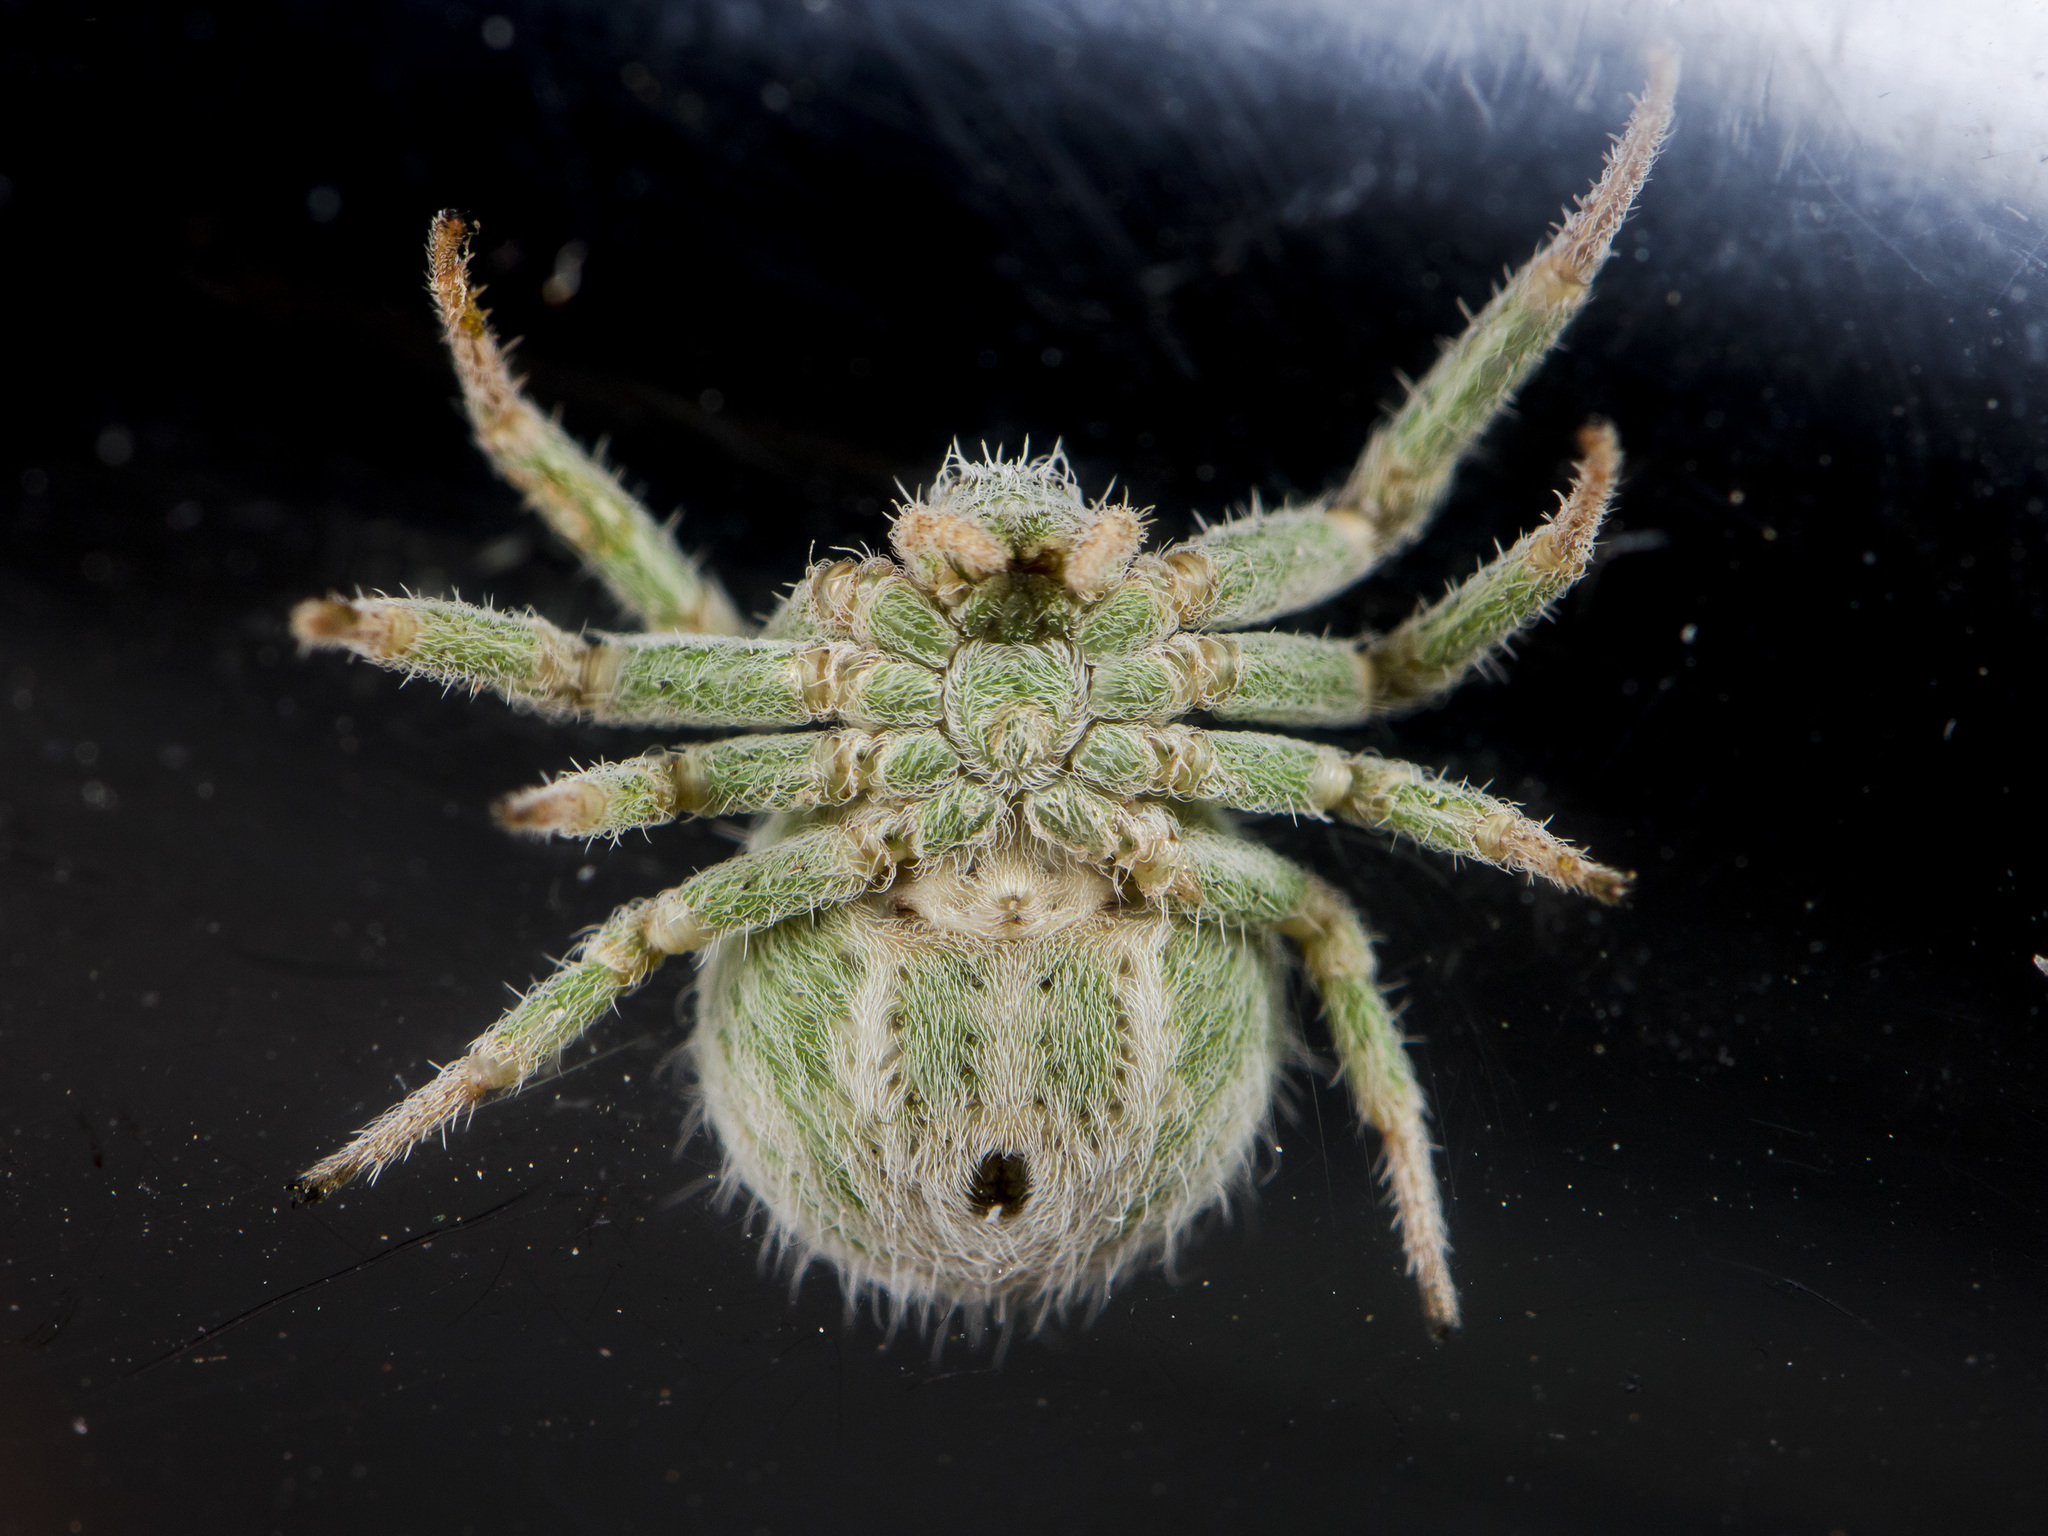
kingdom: Animalia
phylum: Arthropoda
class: Arachnida
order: Araneae
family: Thomisidae
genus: Heriaeus
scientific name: Heriaeus horridus
